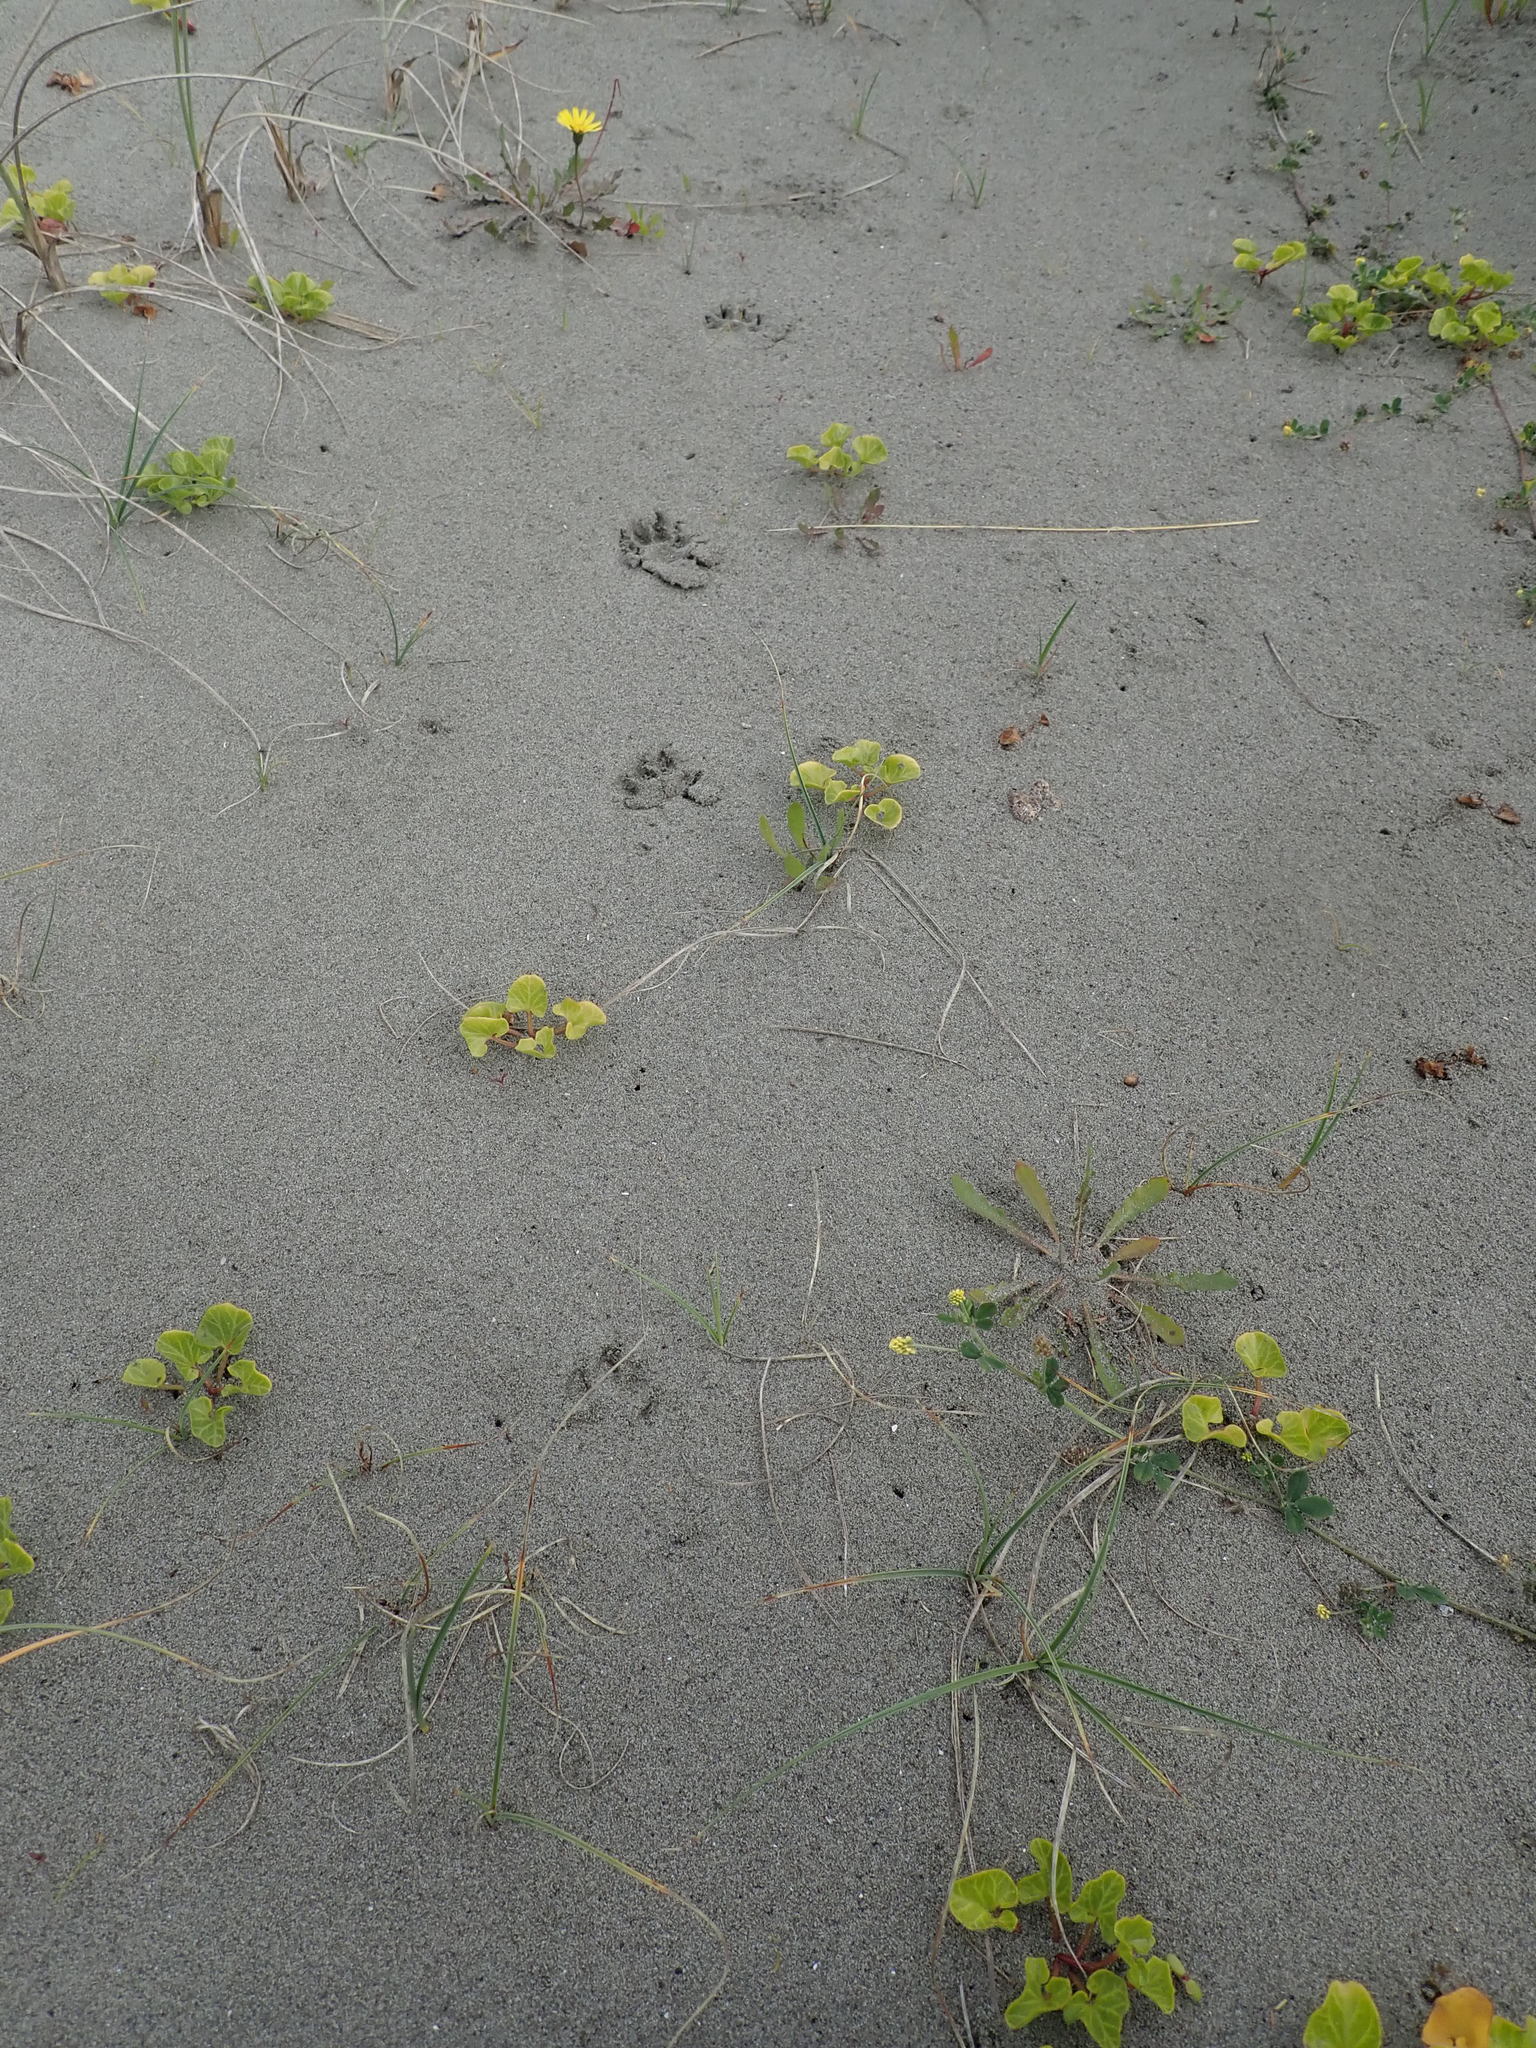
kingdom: Animalia
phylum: Chordata
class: Mammalia
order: Carnivora
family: Felidae
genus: Felis
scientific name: Felis catus
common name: Domestic cat
